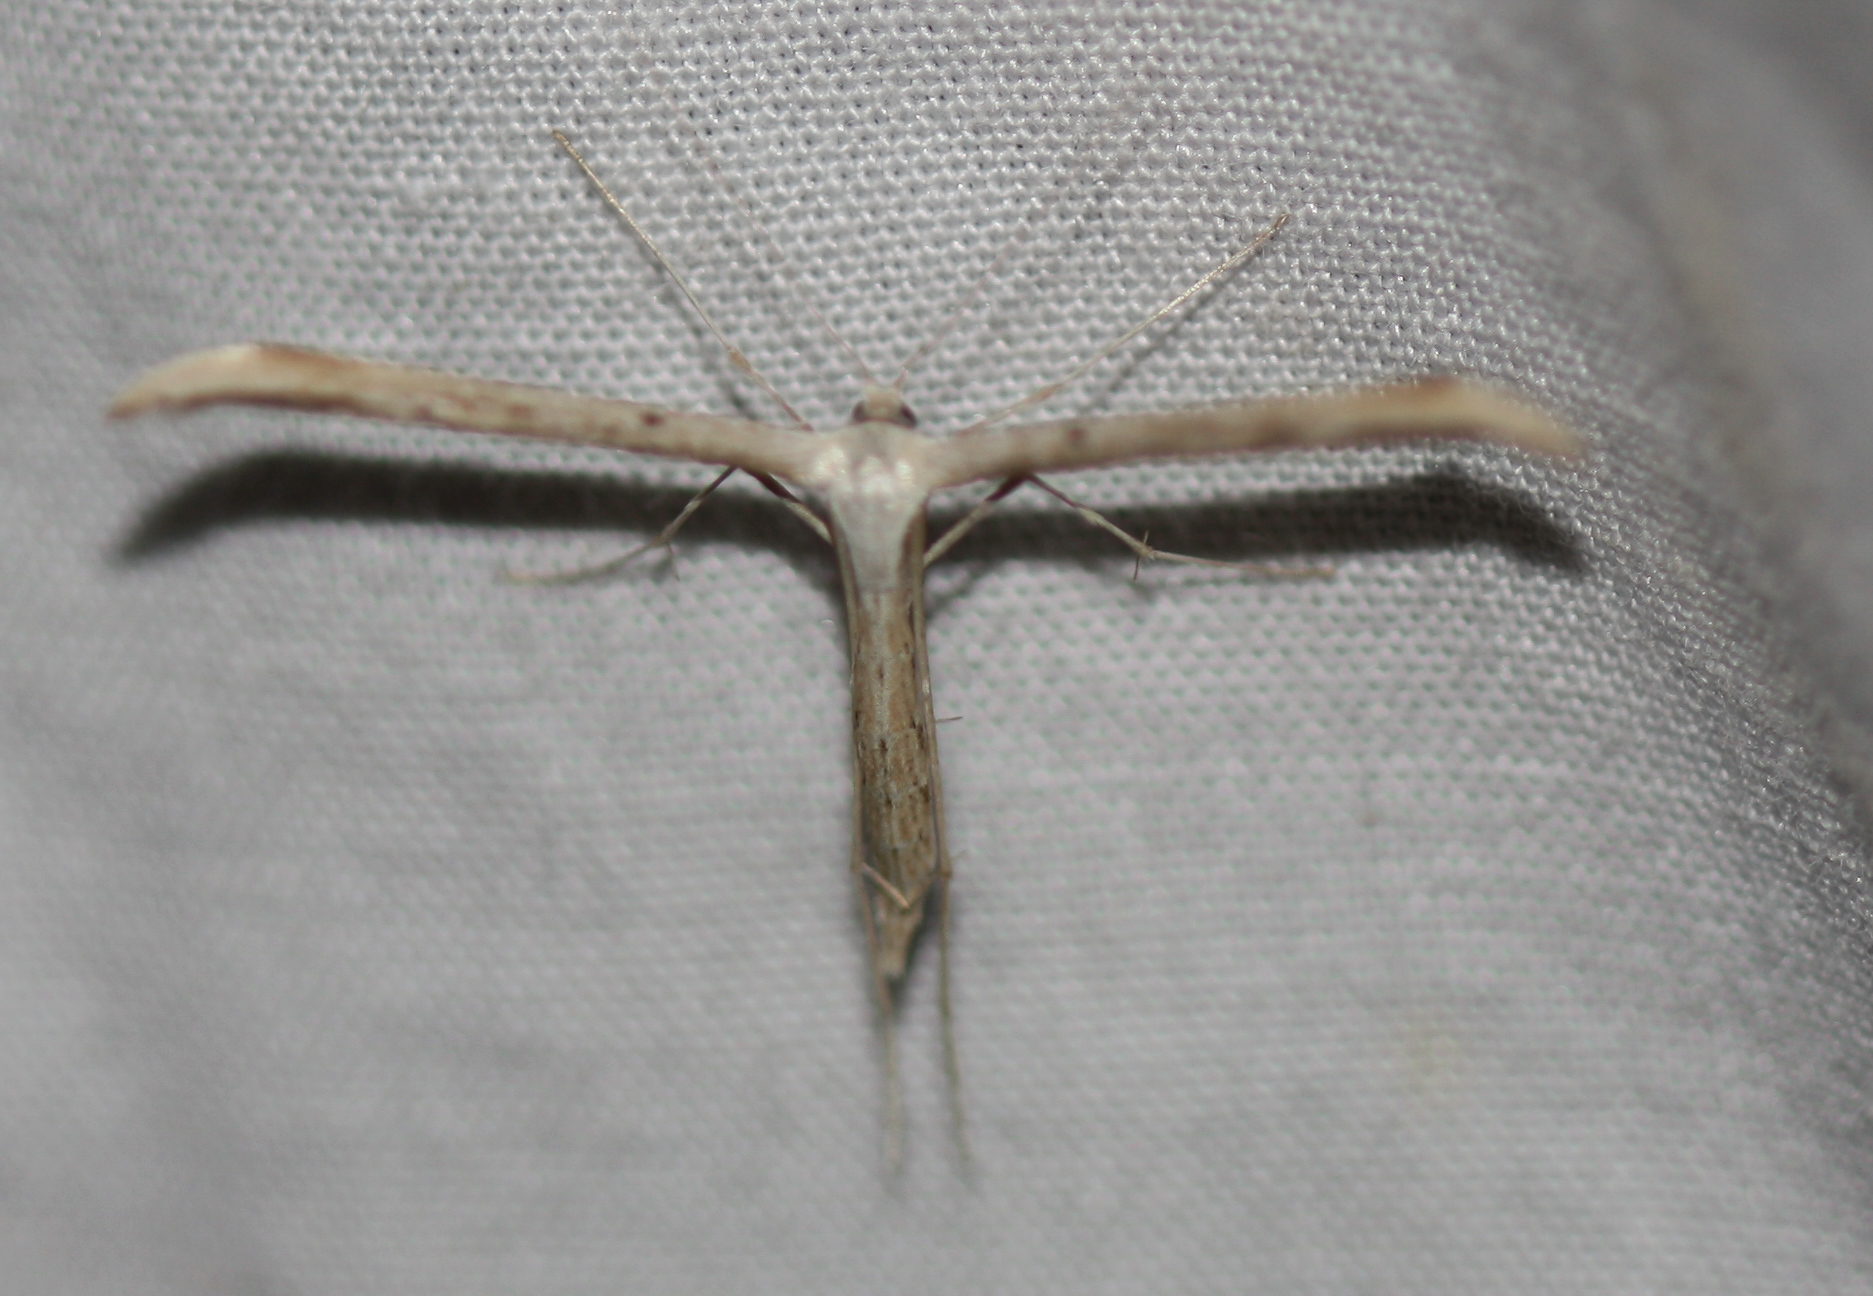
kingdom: Animalia
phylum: Arthropoda
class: Insecta
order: Lepidoptera
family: Pterophoridae
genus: Emmelina
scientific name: Emmelina monodactyla
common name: Common plume
